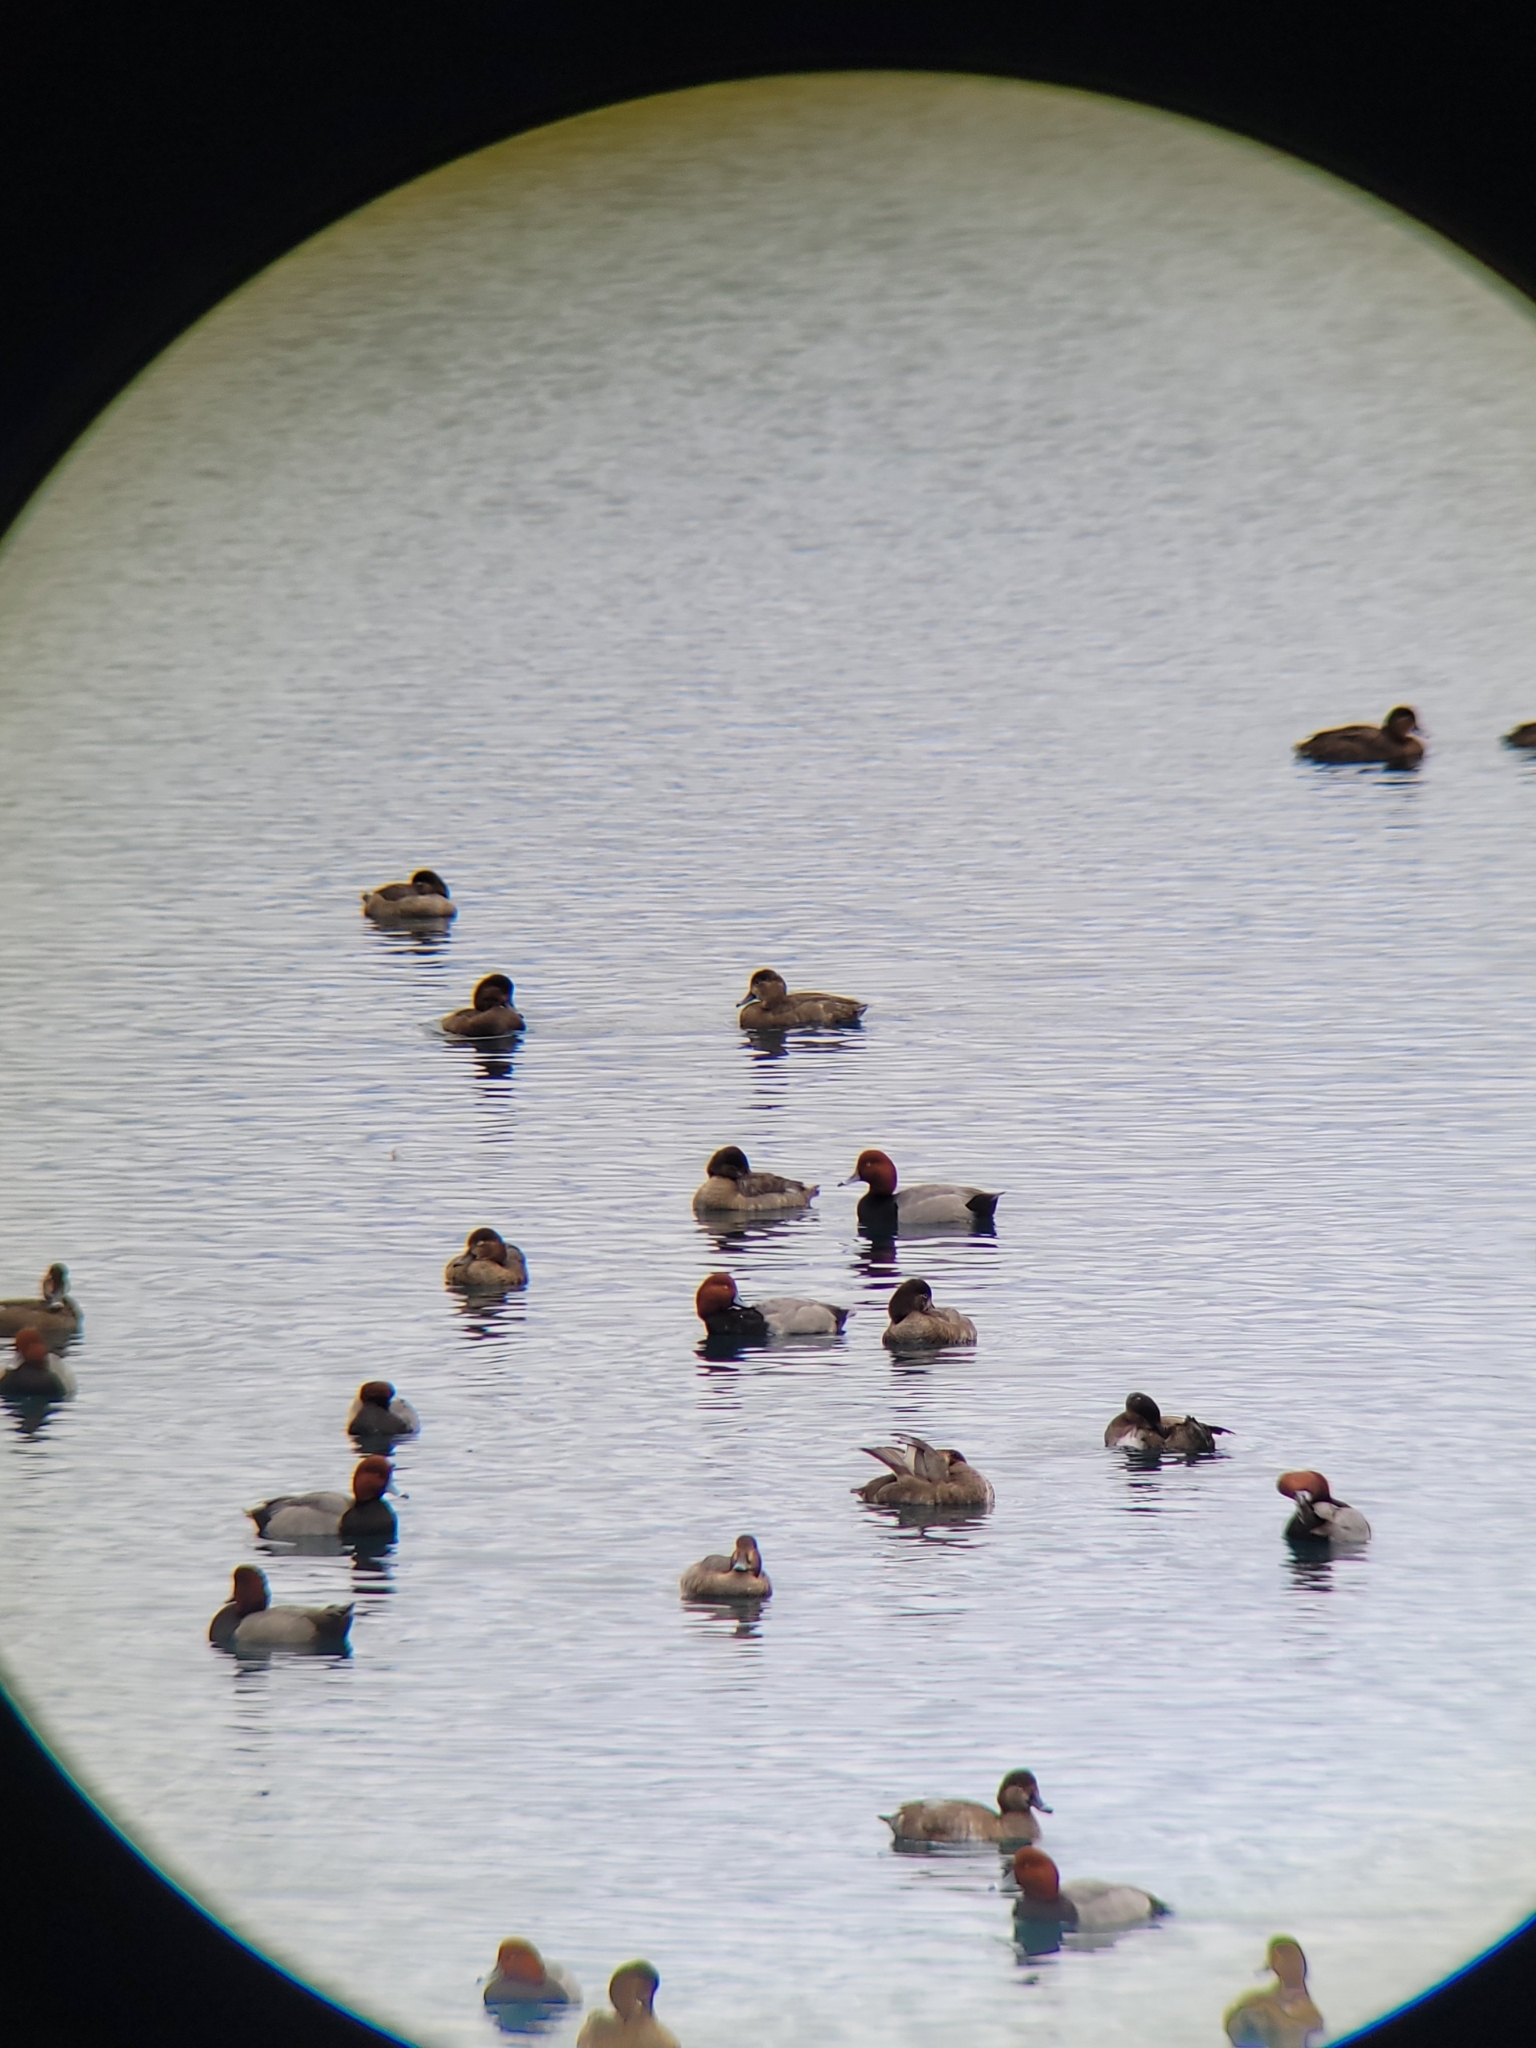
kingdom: Animalia
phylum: Chordata
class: Aves
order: Anseriformes
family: Anatidae
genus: Aythya
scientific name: Aythya americana
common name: Redhead
